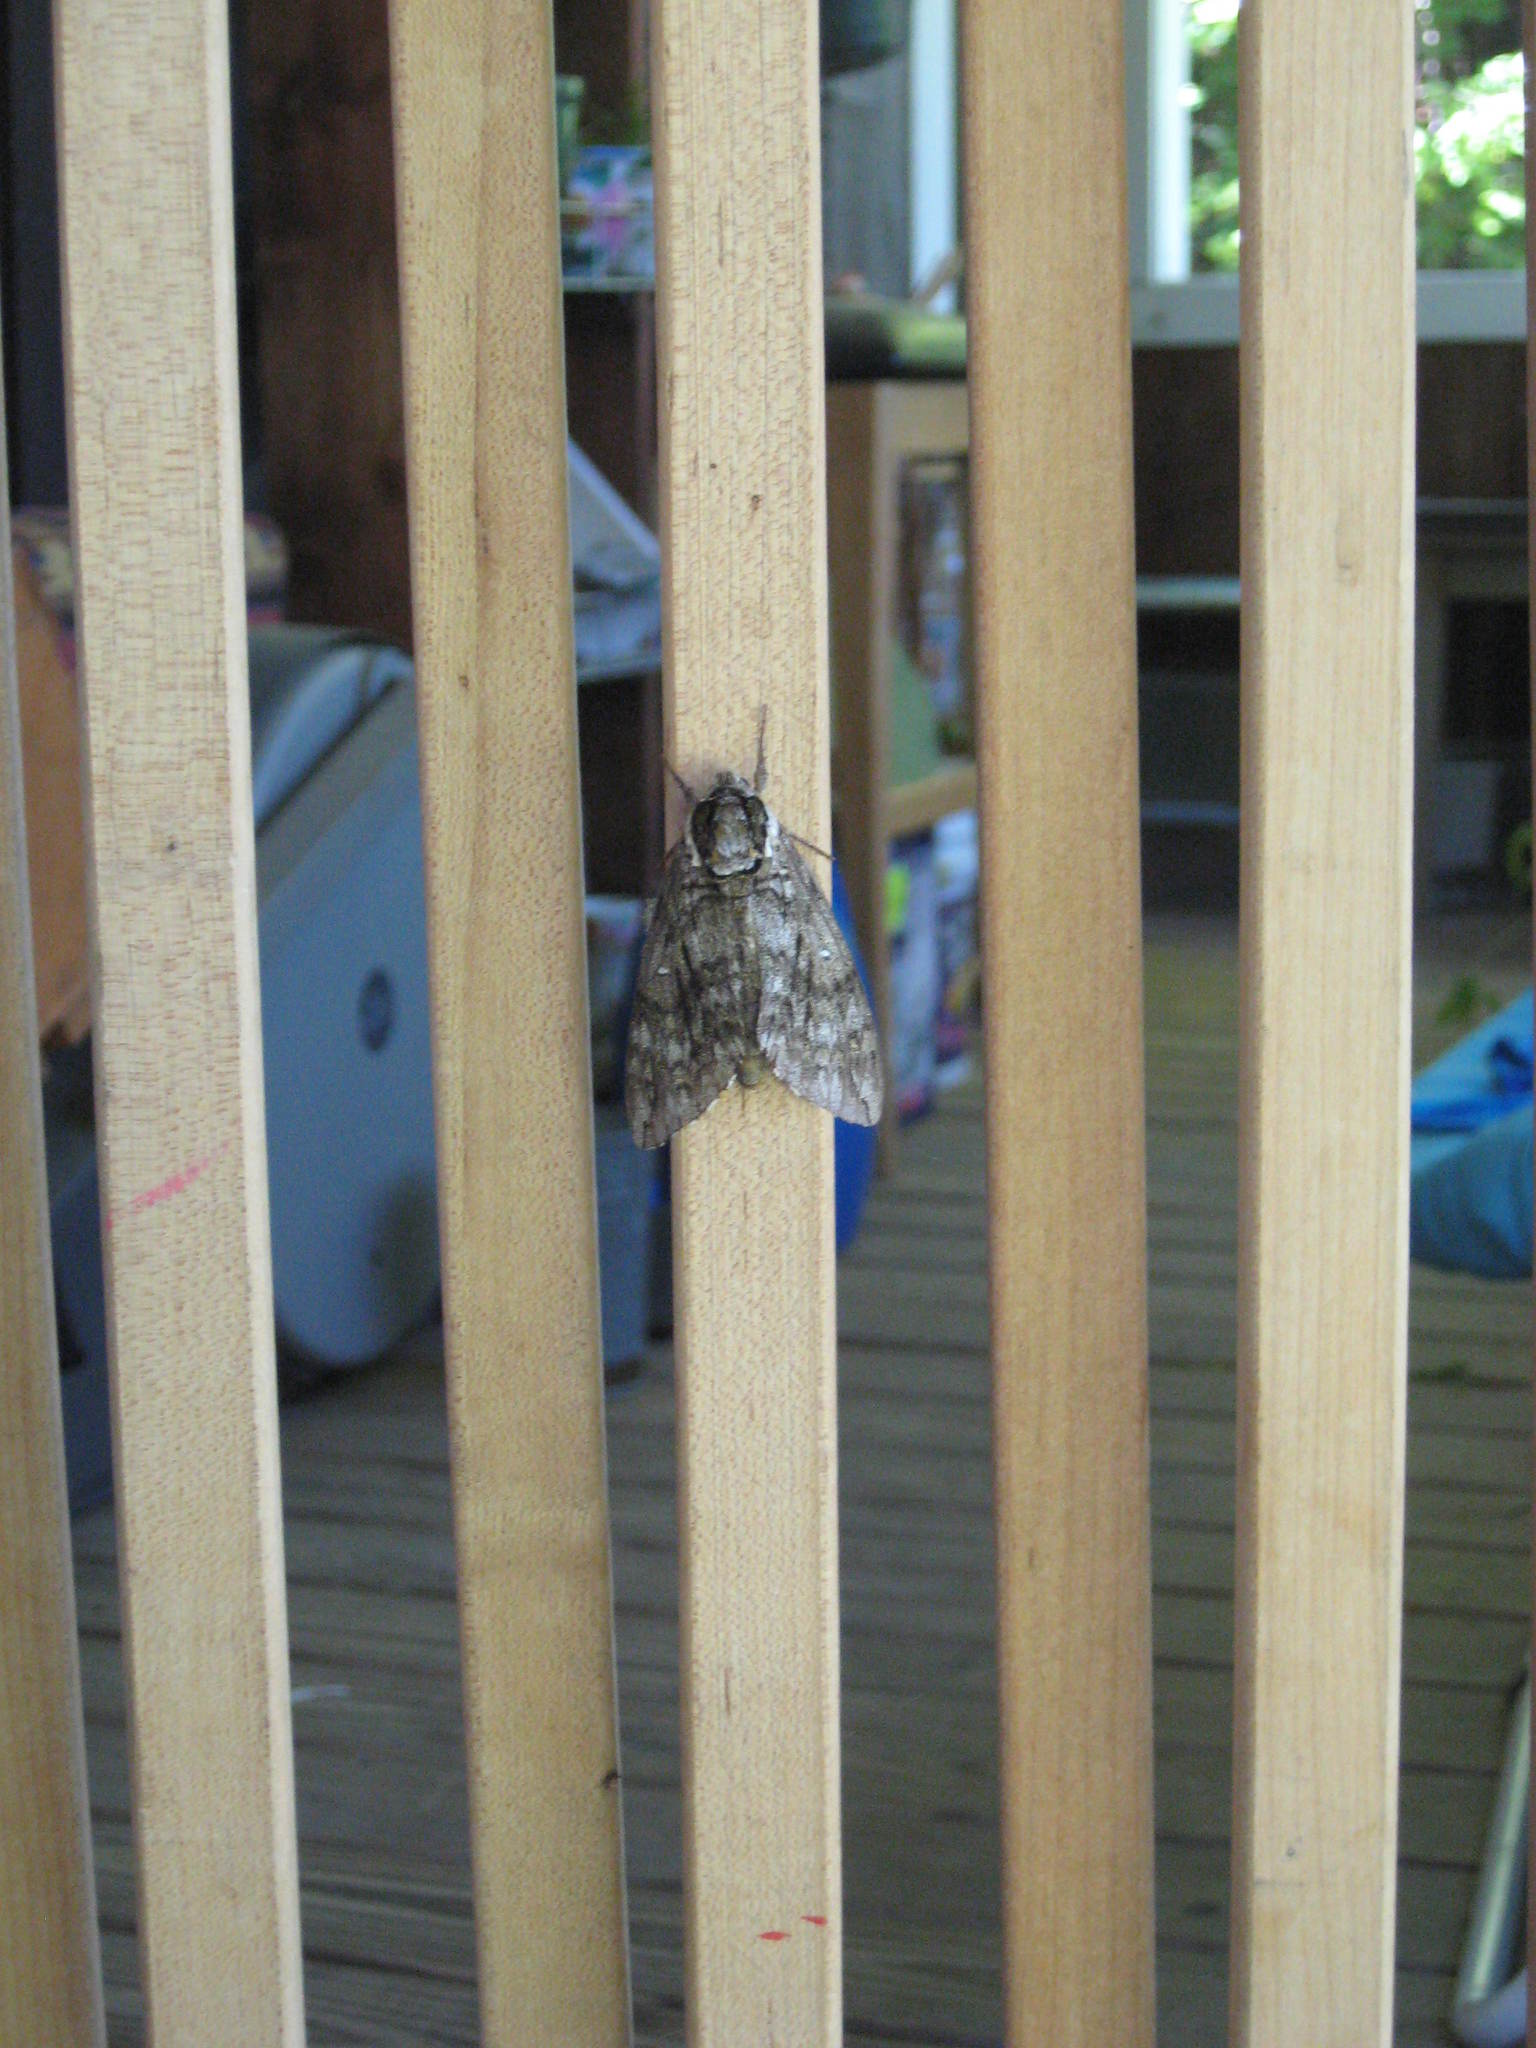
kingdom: Animalia
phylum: Arthropoda
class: Insecta
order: Lepidoptera
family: Sphingidae
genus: Ceratomia
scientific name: Ceratomia undulosa
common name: Waved sphinx
